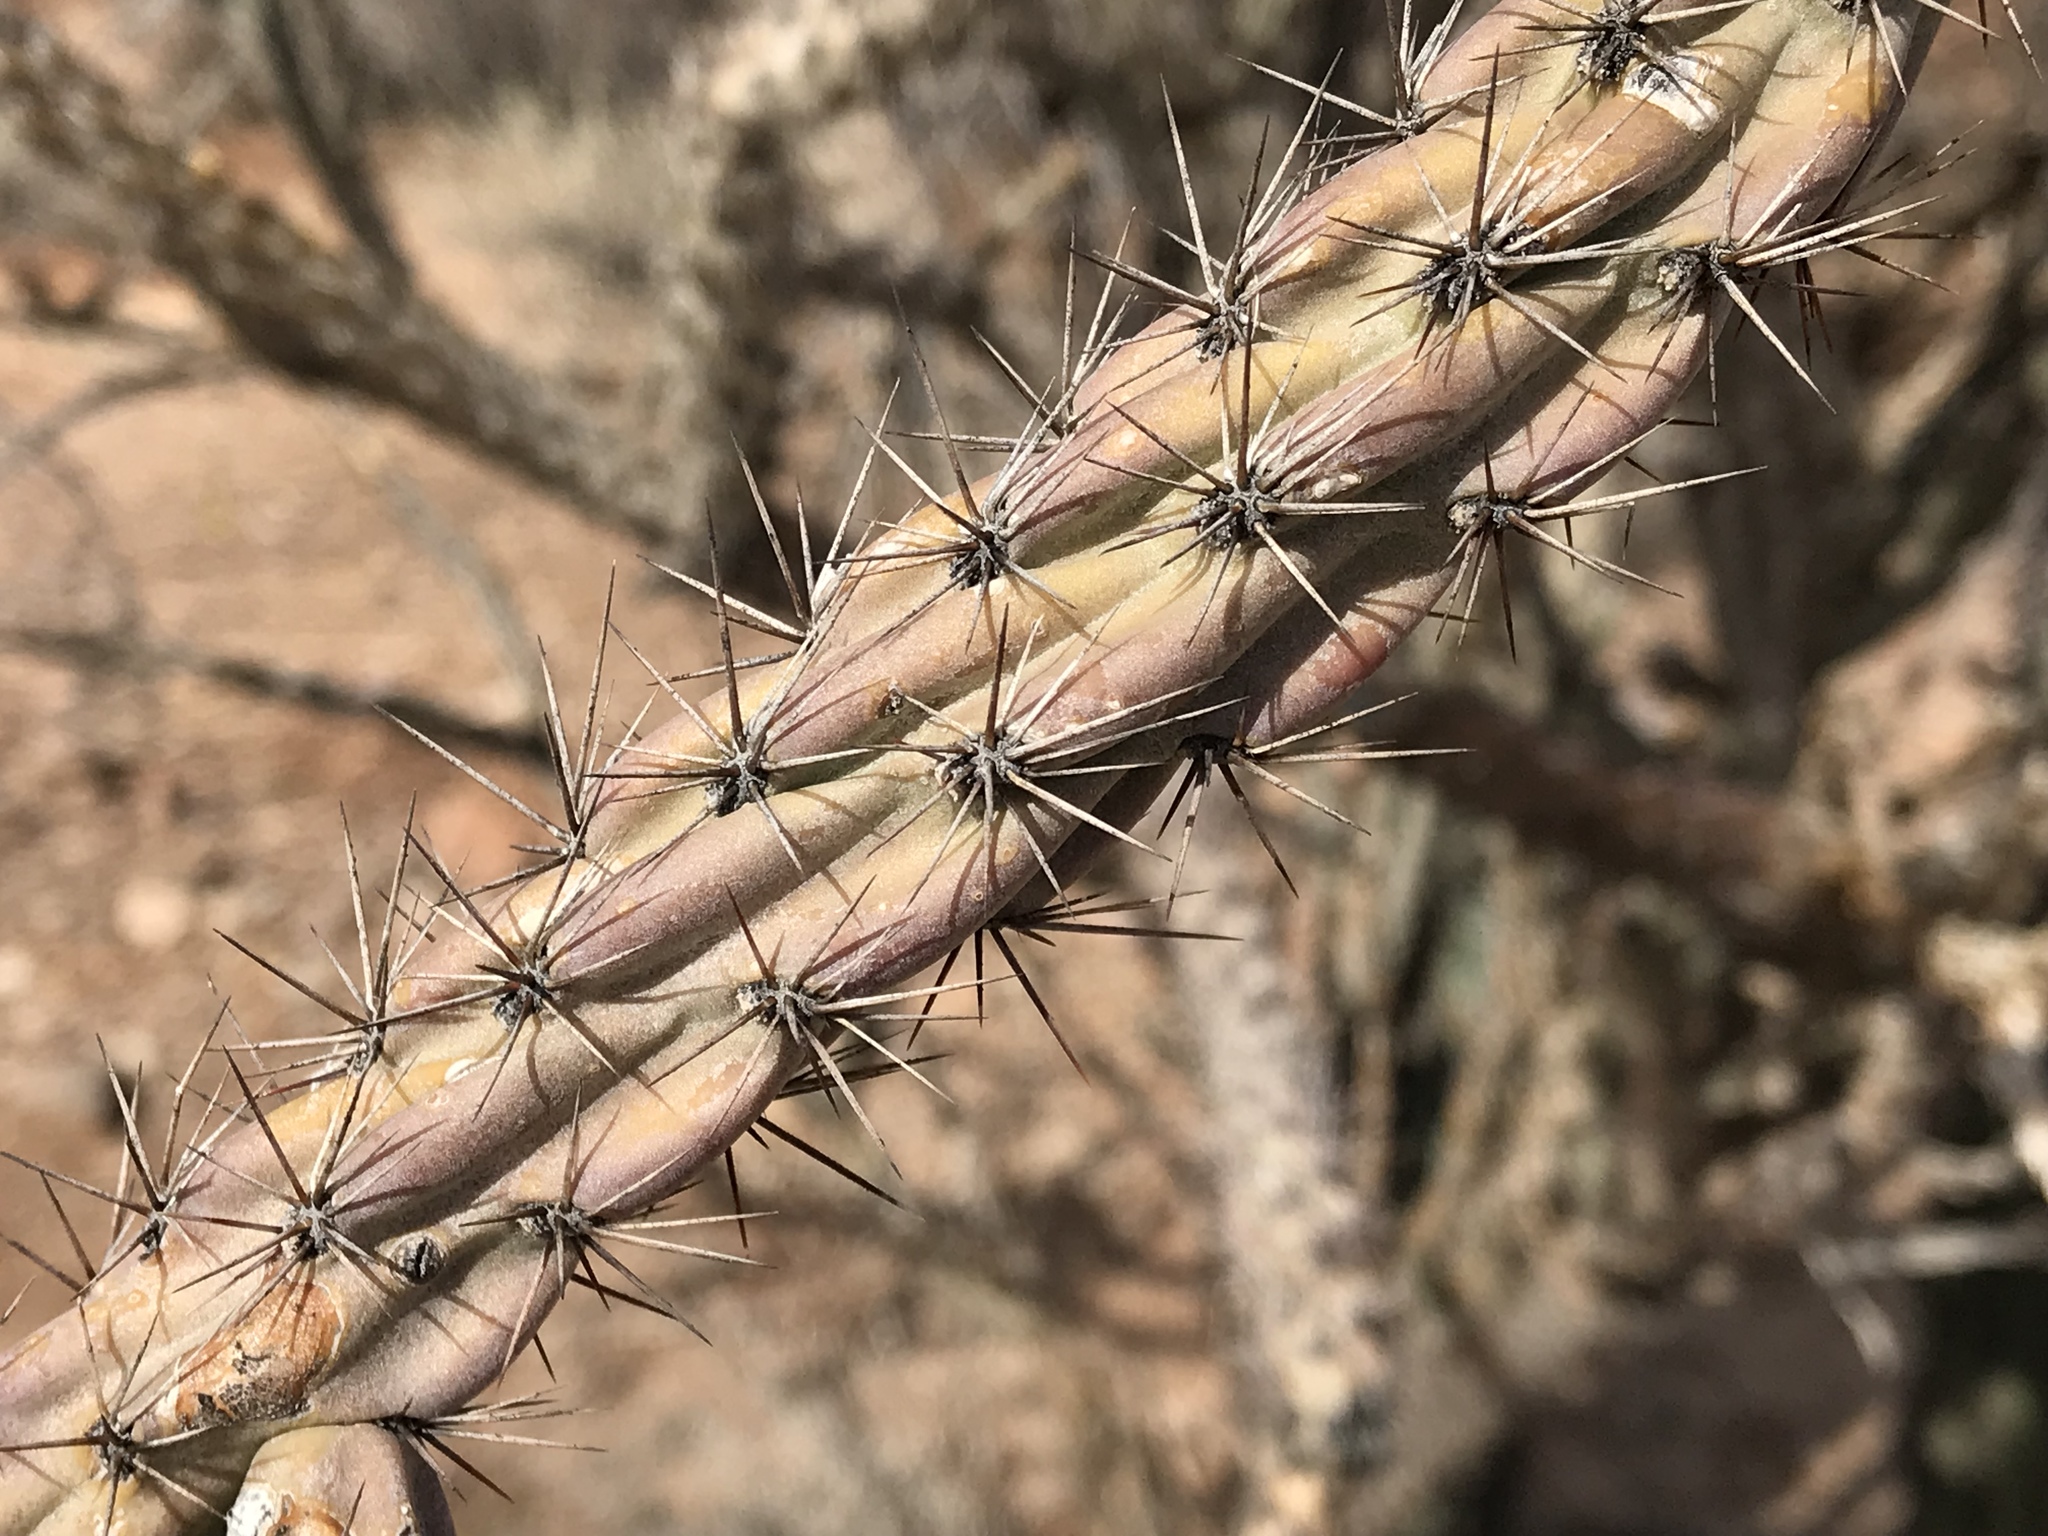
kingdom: Plantae
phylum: Tracheophyta
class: Magnoliopsida
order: Caryophyllales
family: Cactaceae
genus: Cylindropuntia
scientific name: Cylindropuntia thurberi
